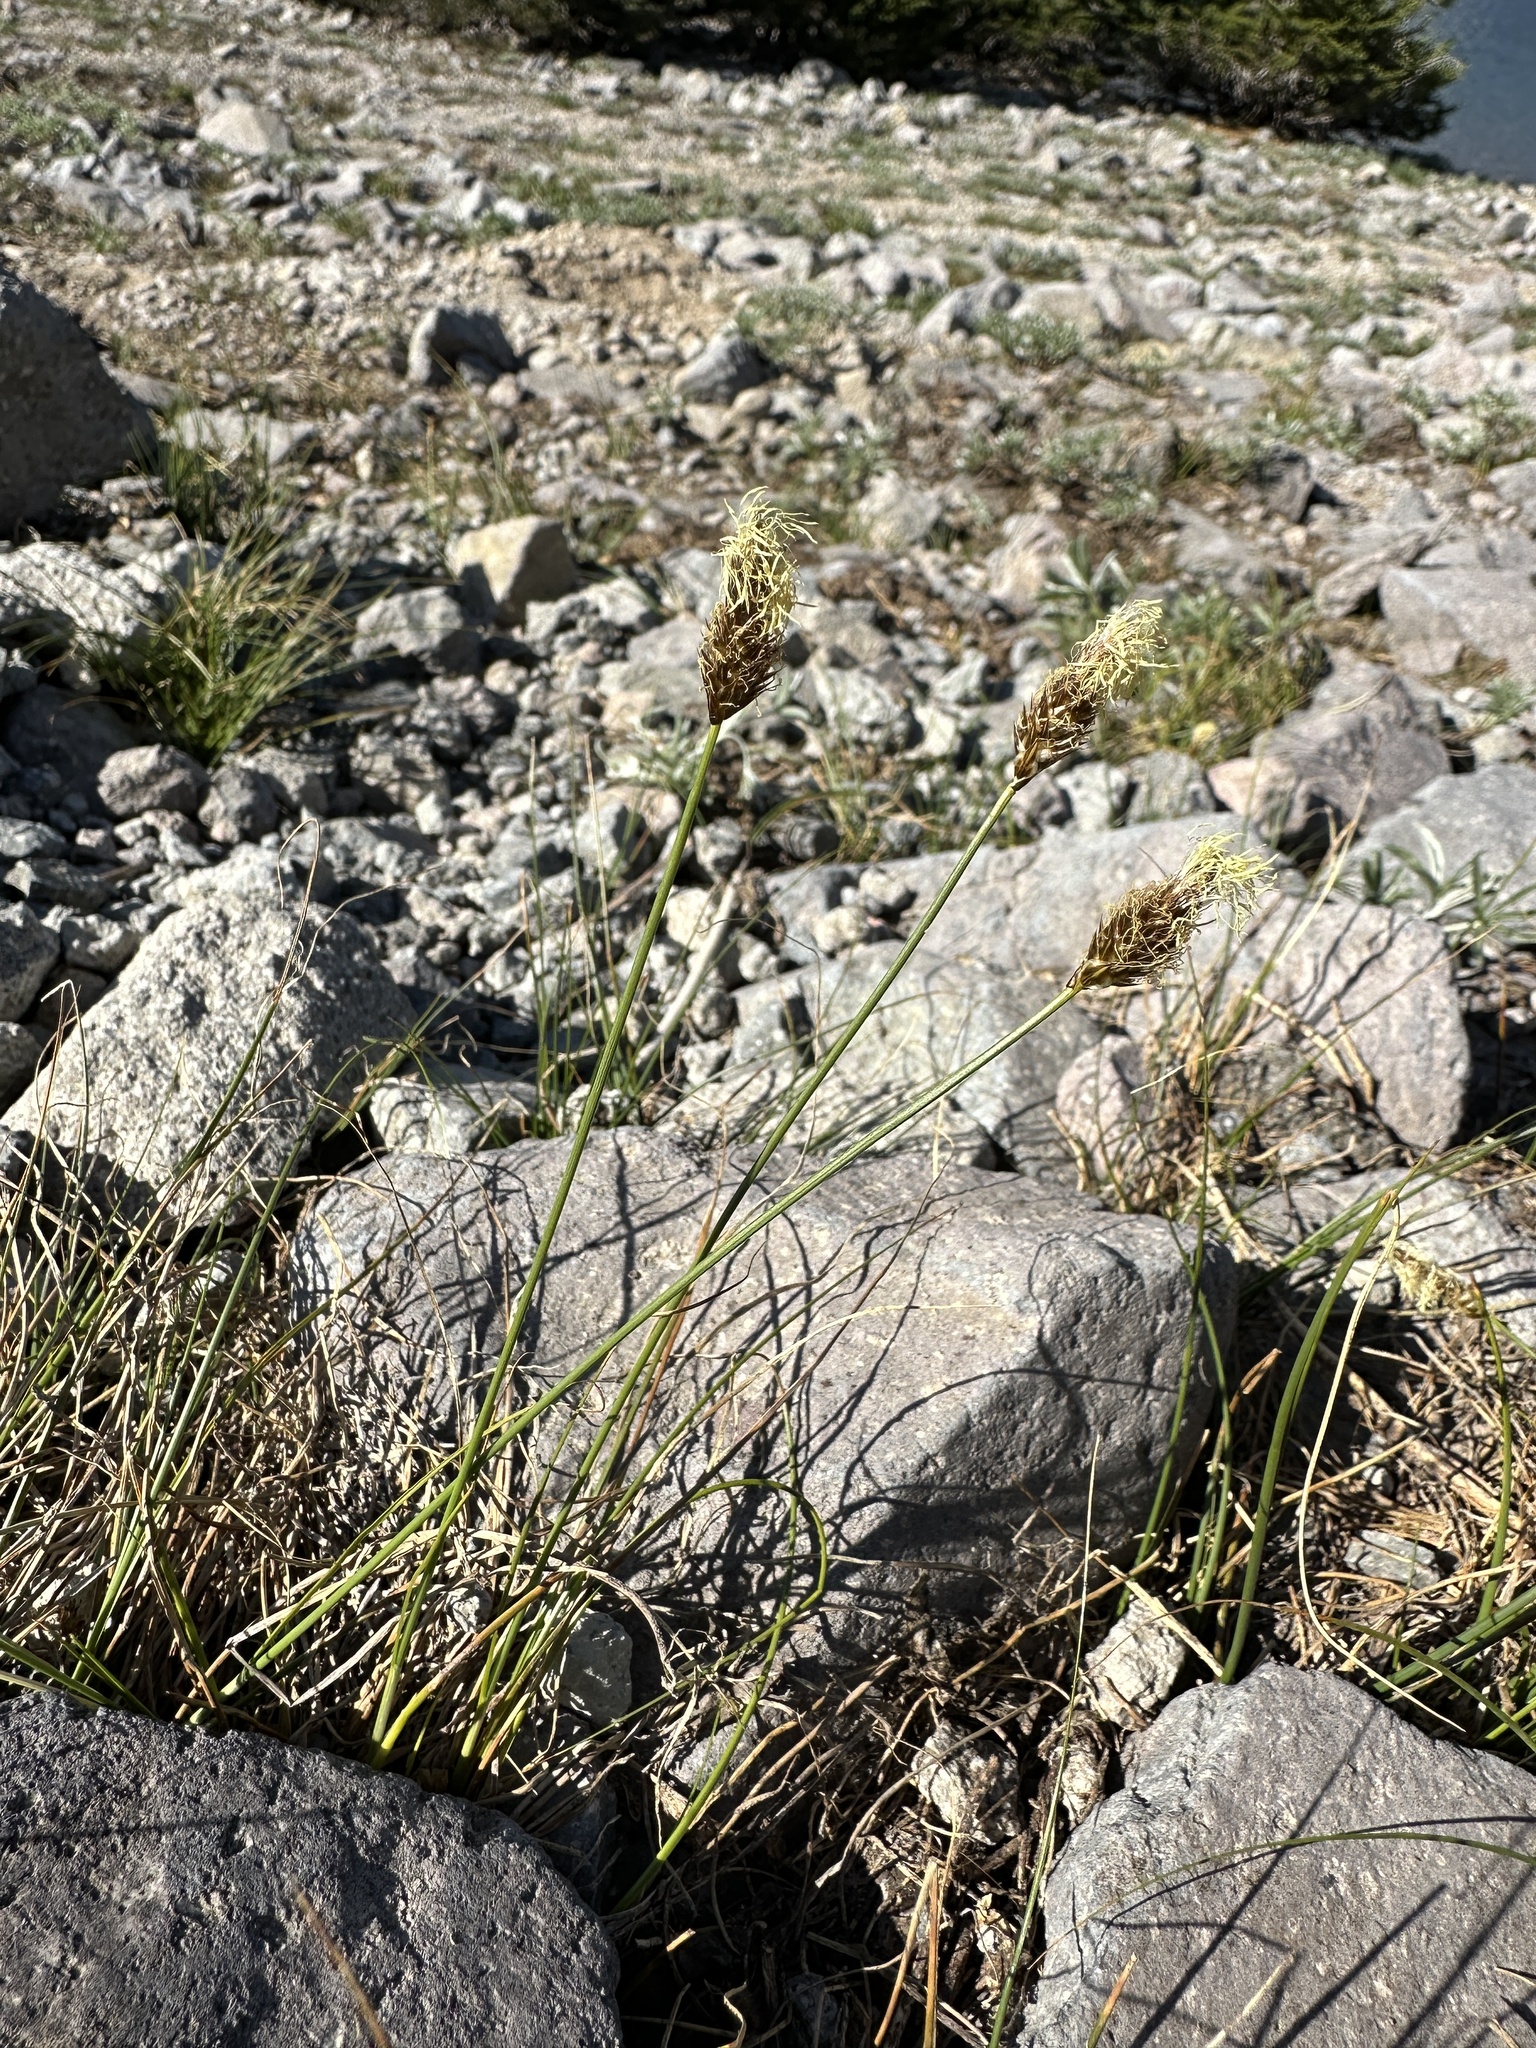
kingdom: Plantae
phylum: Tracheophyta
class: Liliopsida
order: Poales
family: Cyperaceae
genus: Carex
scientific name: Carex breweri
